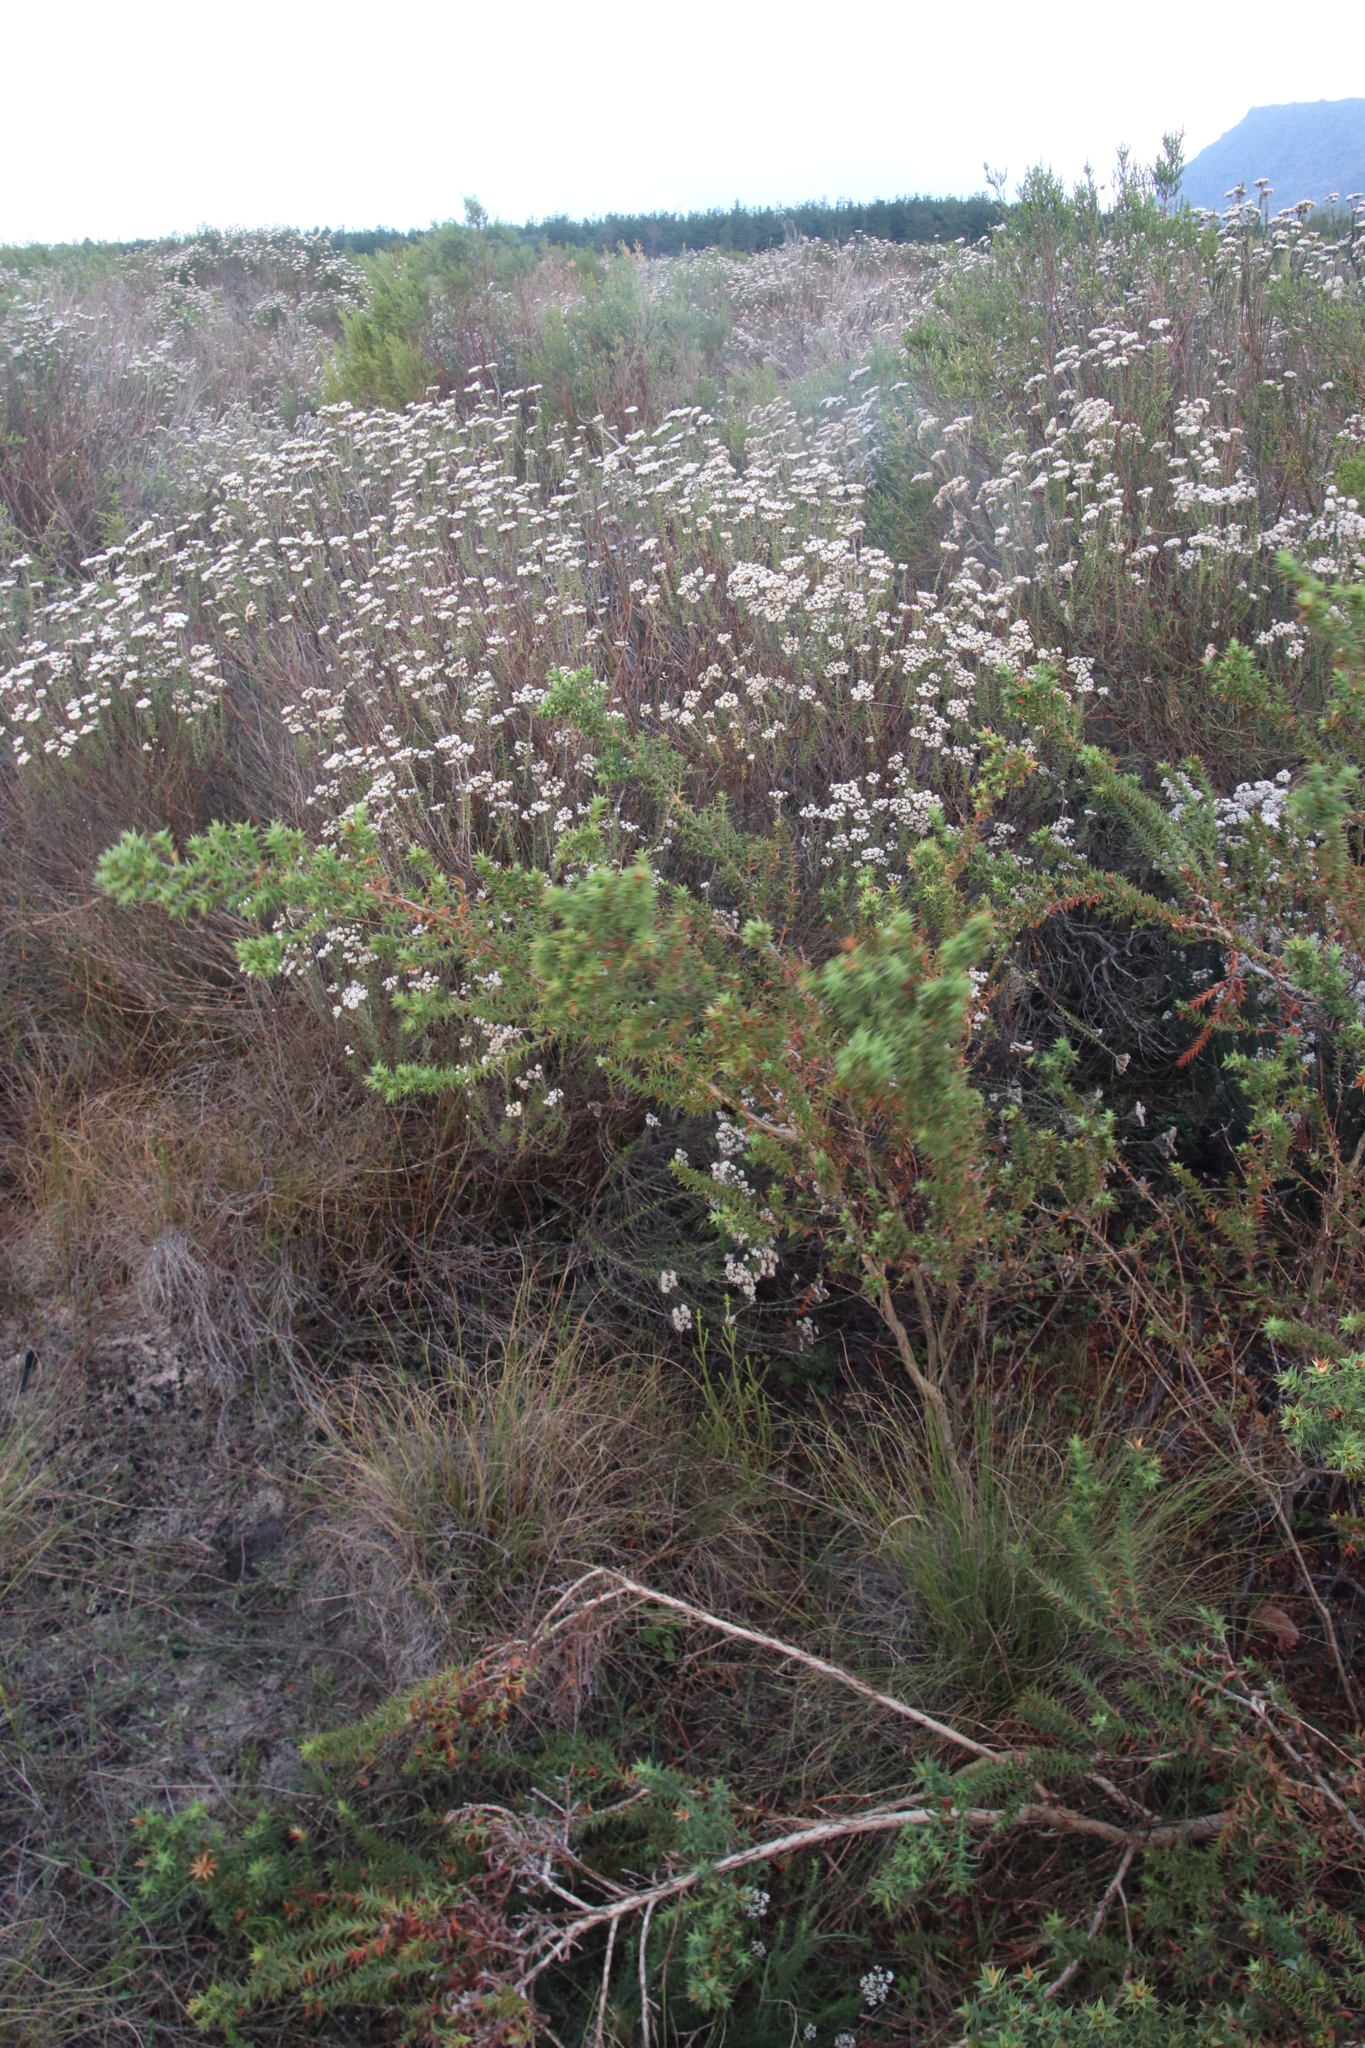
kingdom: Plantae
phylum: Tracheophyta
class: Magnoliopsida
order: Fabales
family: Fabaceae
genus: Aspalathus
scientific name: Aspalathus cordata
